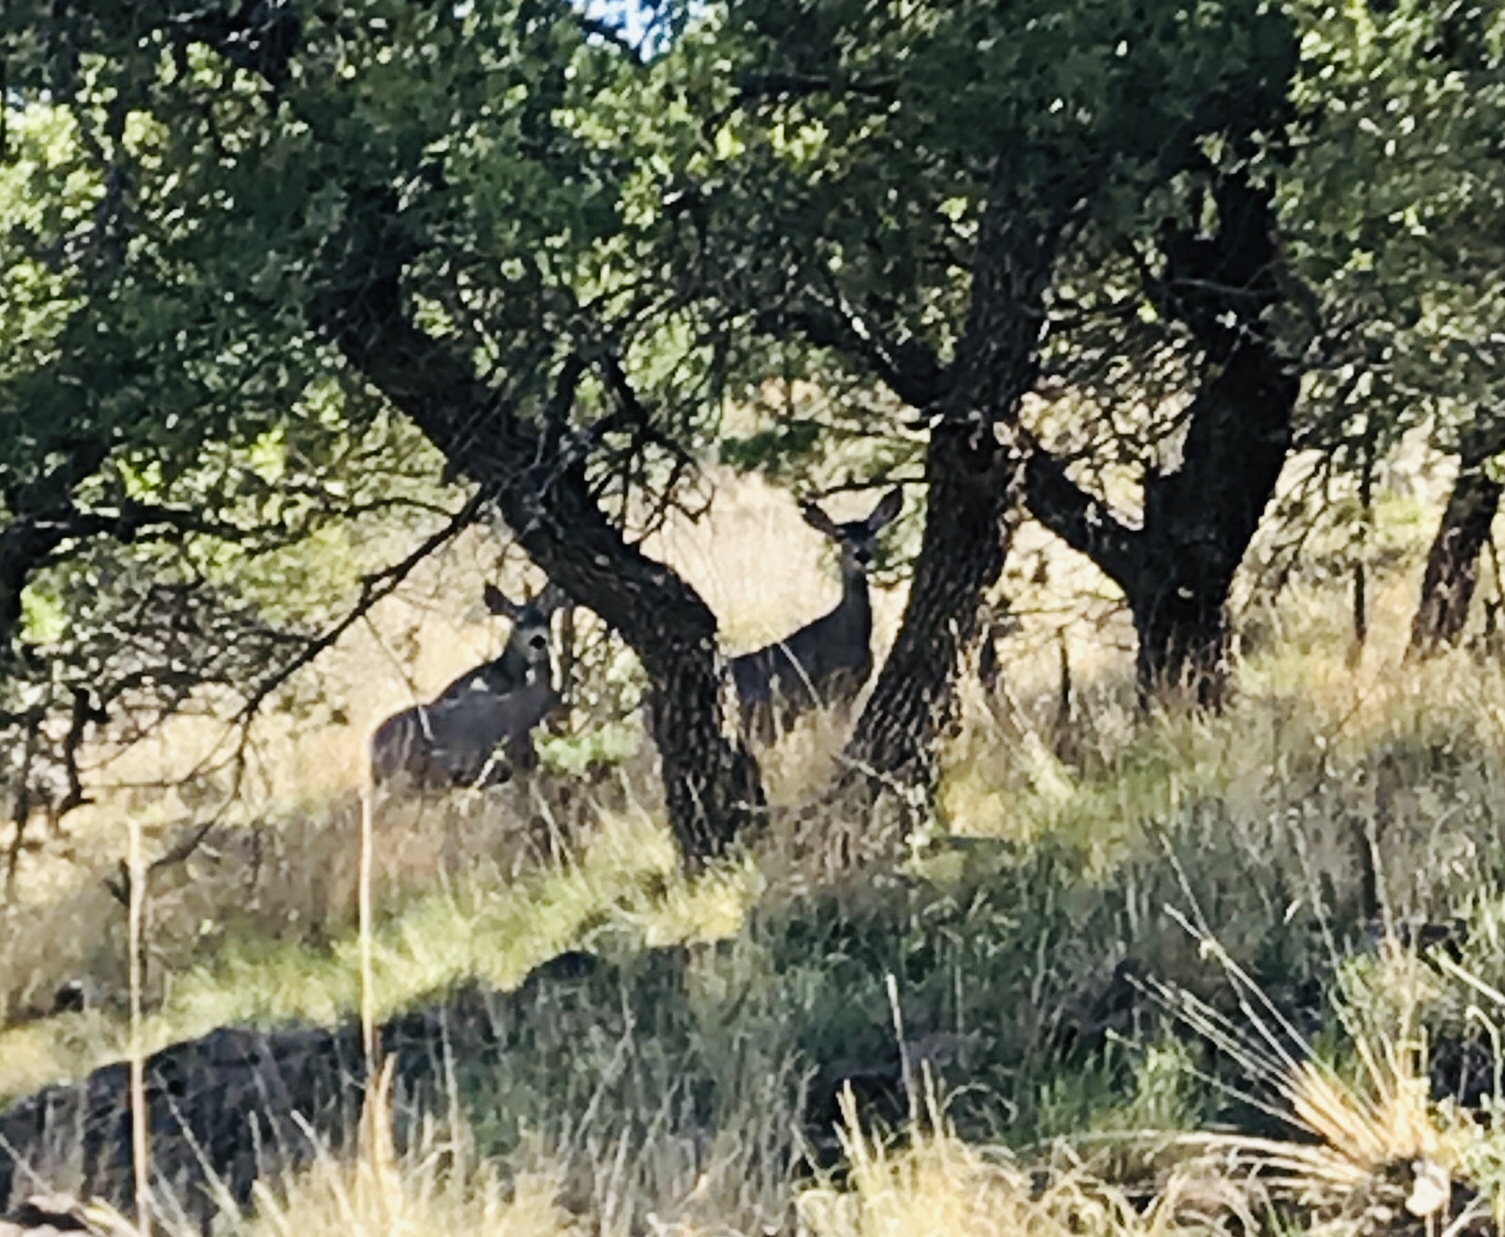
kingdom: Animalia
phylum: Chordata
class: Mammalia
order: Artiodactyla
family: Cervidae
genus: Odocoileus
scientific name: Odocoileus hemionus
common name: Mule deer
